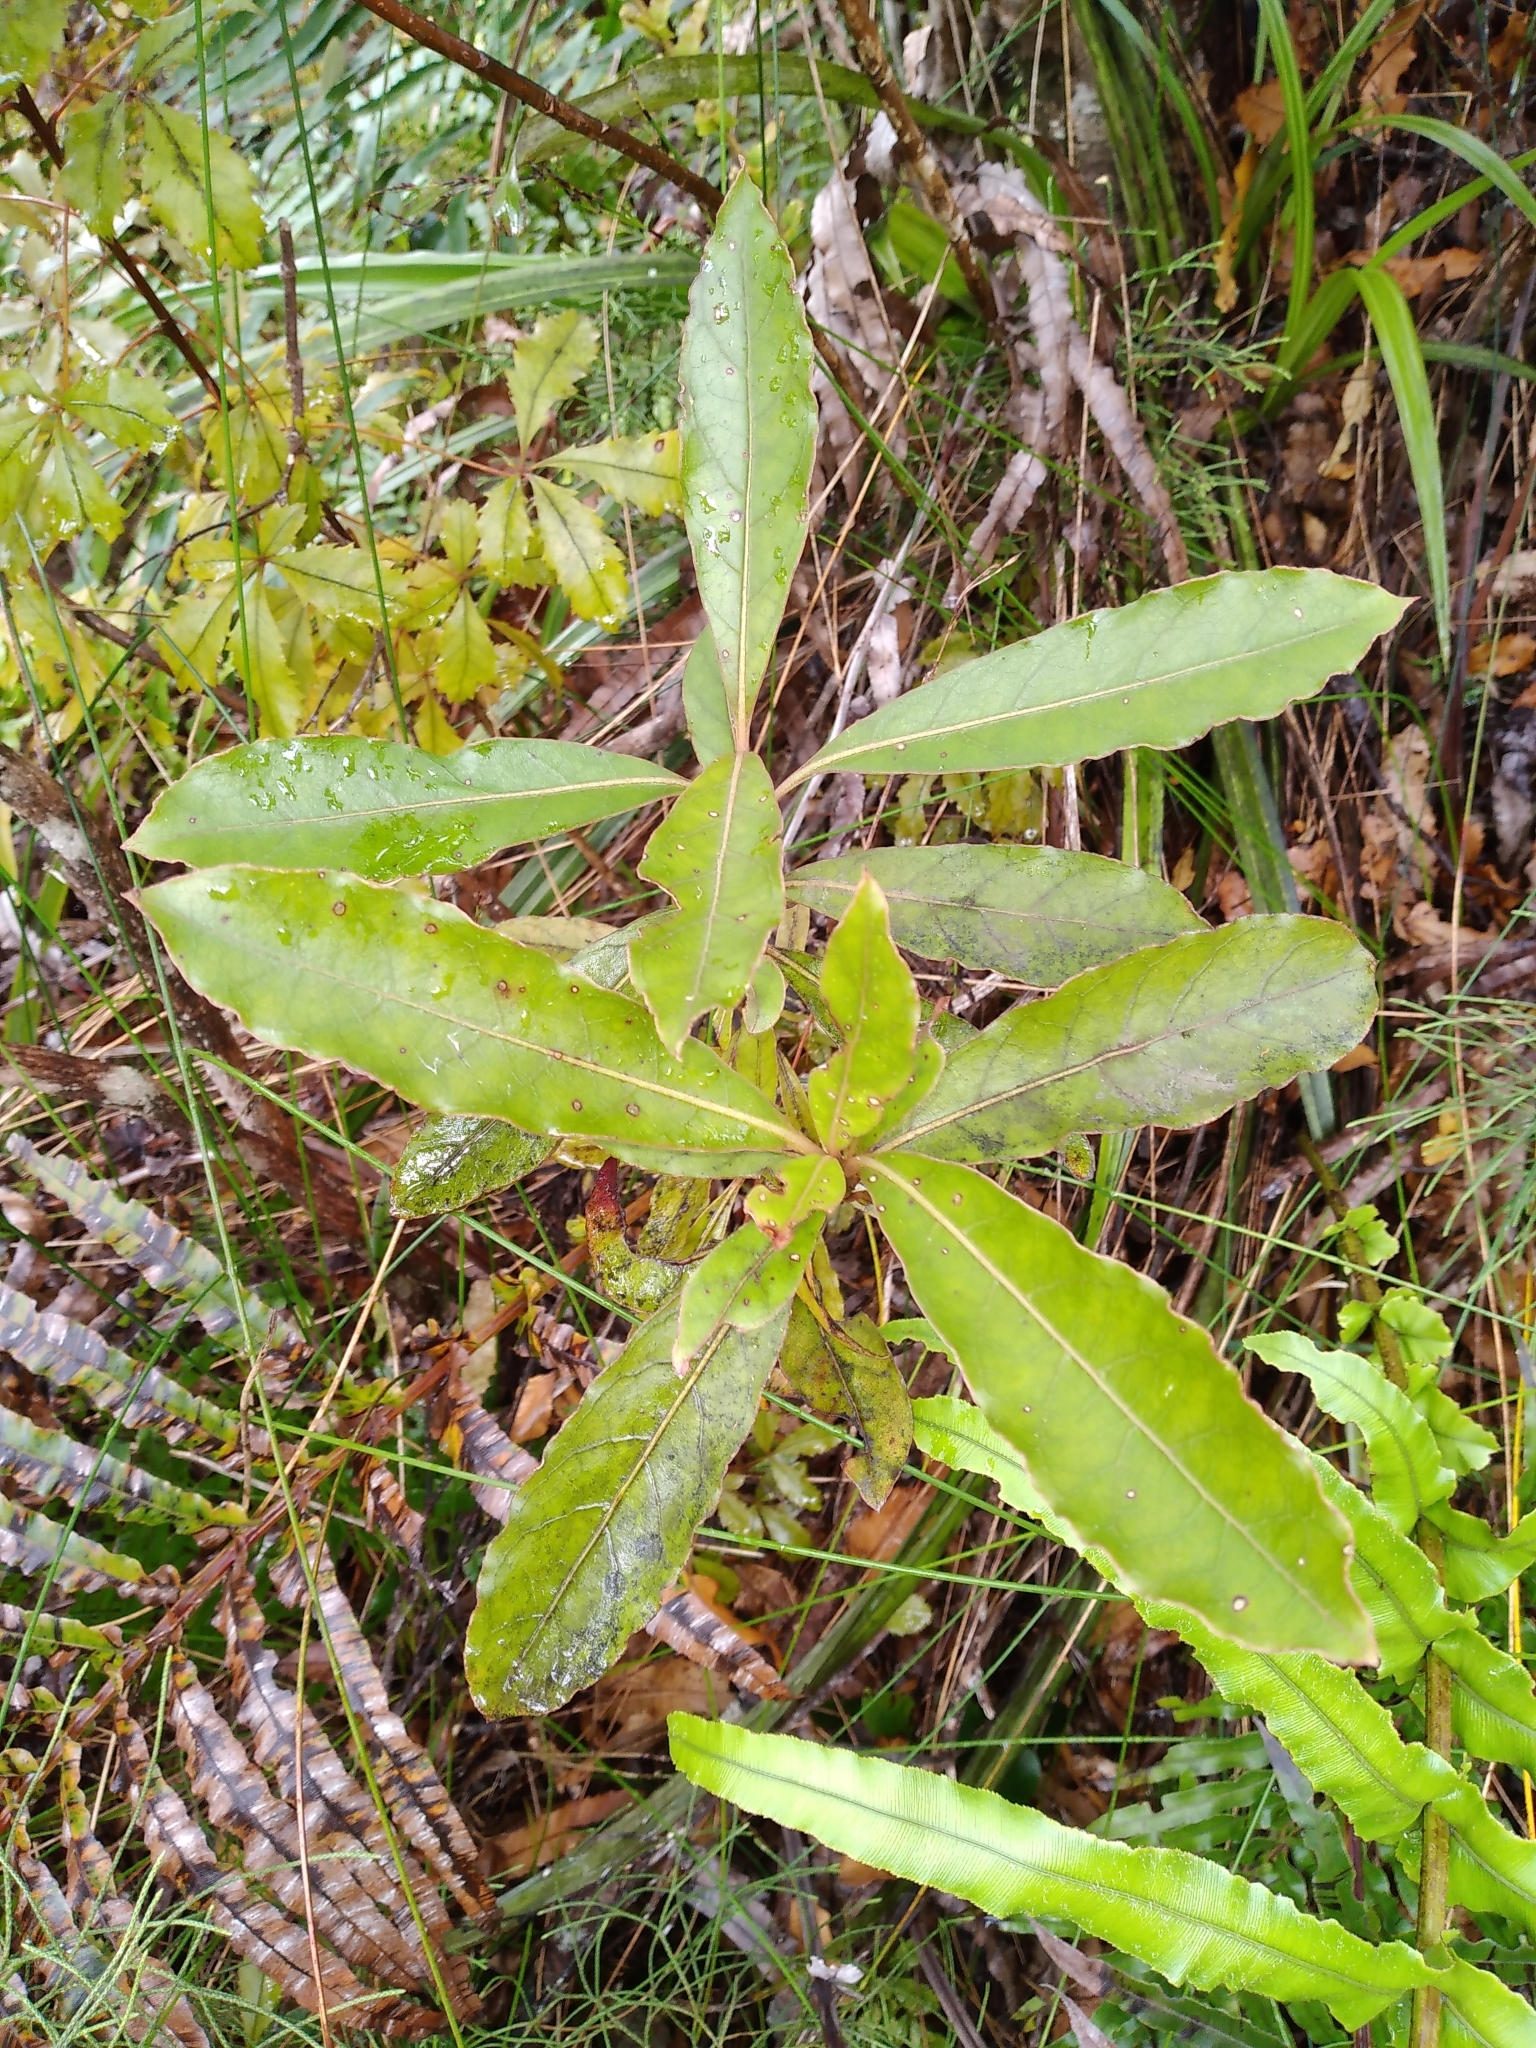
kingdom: Plantae
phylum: Tracheophyta
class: Magnoliopsida
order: Gentianales
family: Rubiaceae
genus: Coprosma
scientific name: Coprosma dodonaeifolia
